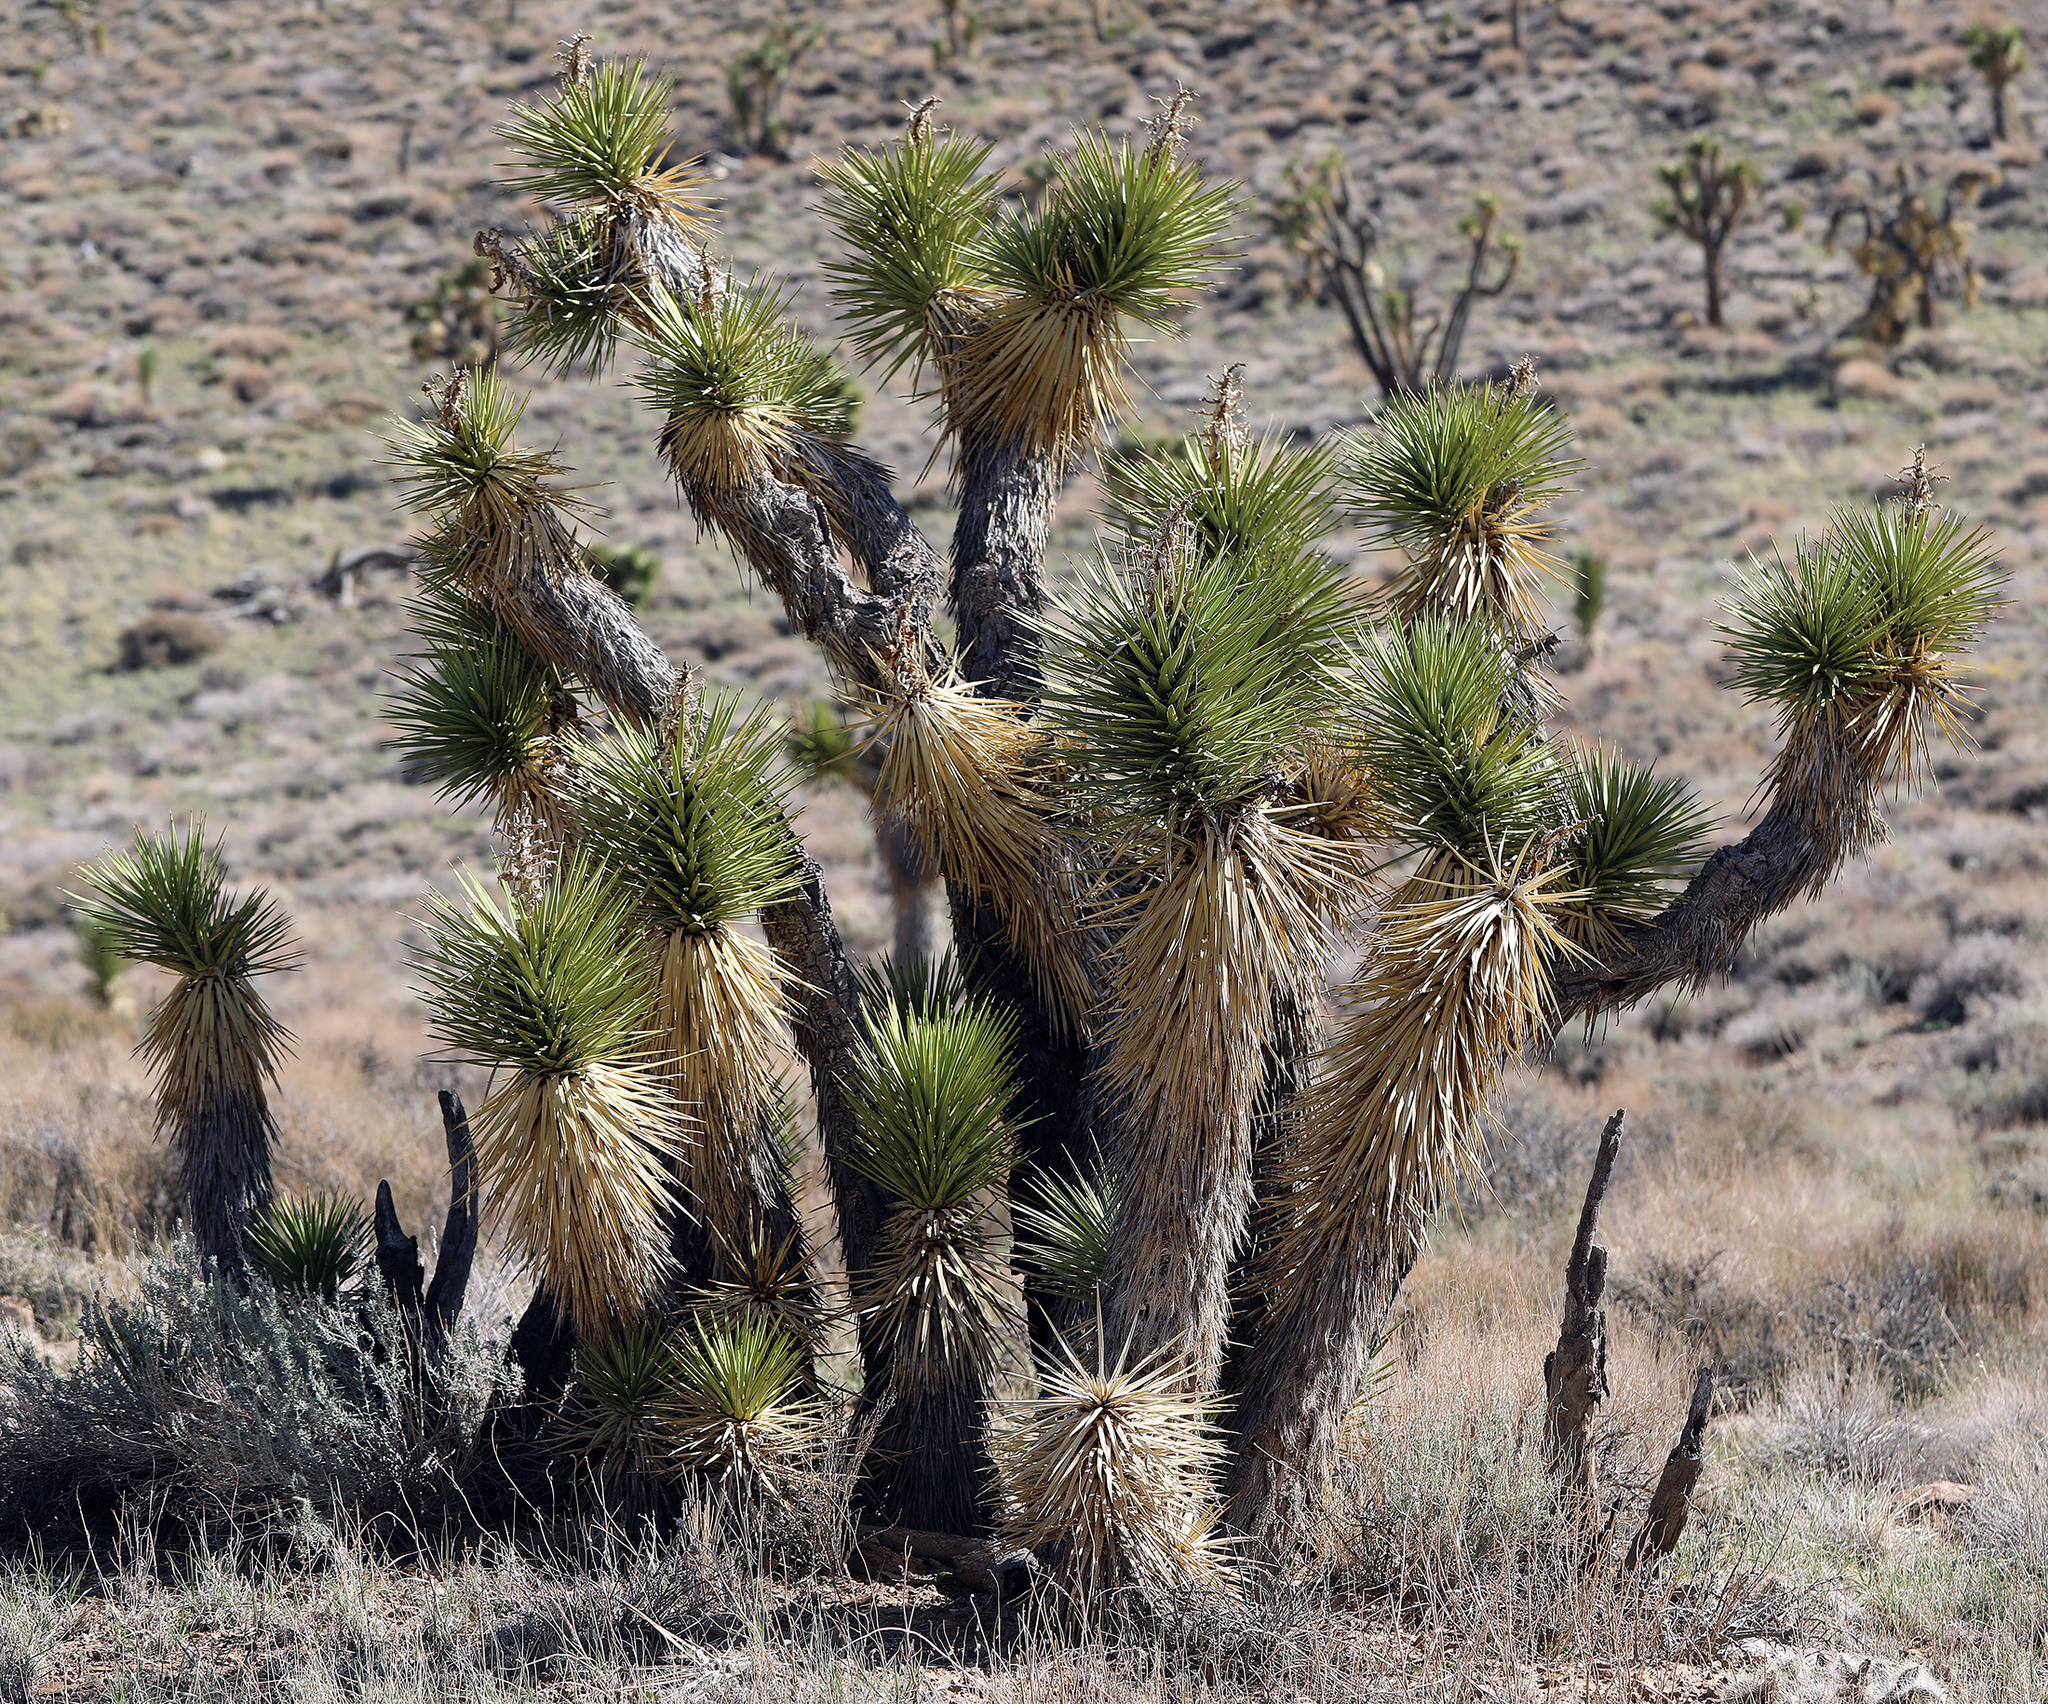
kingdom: Plantae
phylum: Tracheophyta
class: Liliopsida
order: Asparagales
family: Asparagaceae
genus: Yucca
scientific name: Yucca brevifolia
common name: Joshua tree
